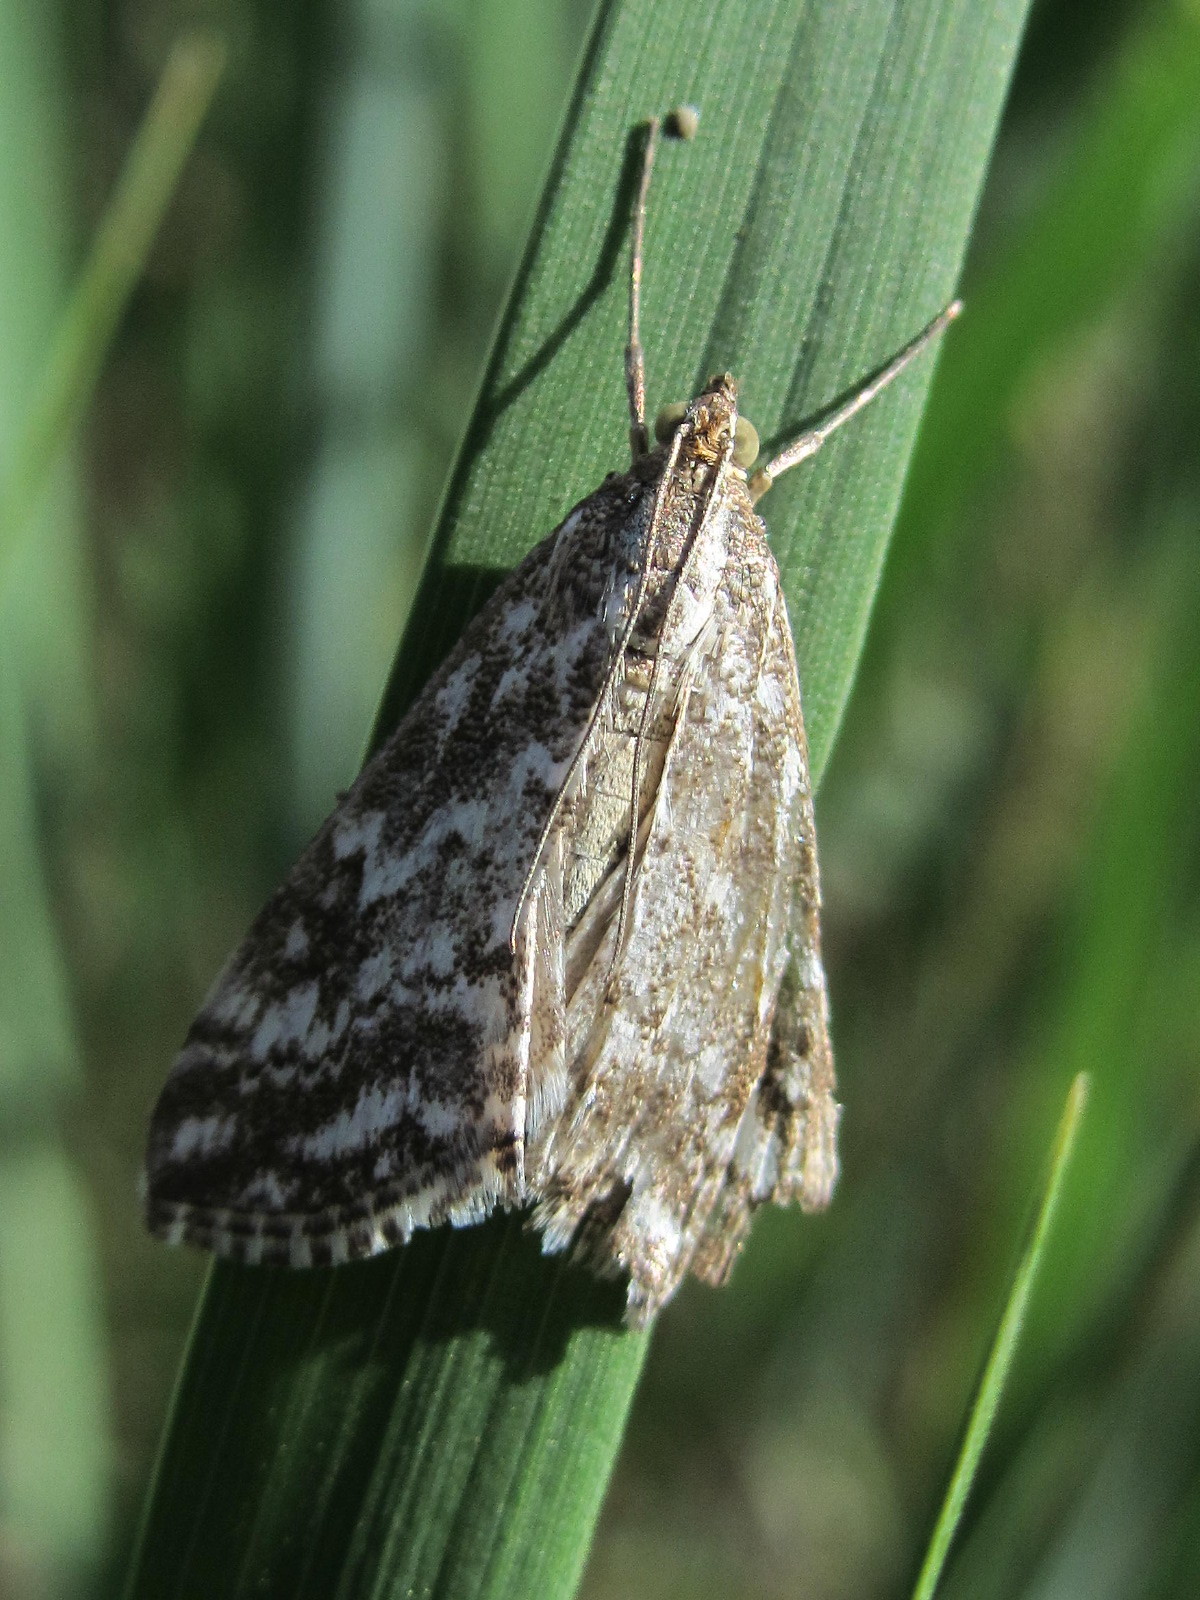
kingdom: Animalia
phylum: Arthropoda
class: Insecta
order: Lepidoptera
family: Crambidae
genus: Evergestis
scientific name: Evergestis frumentalis
